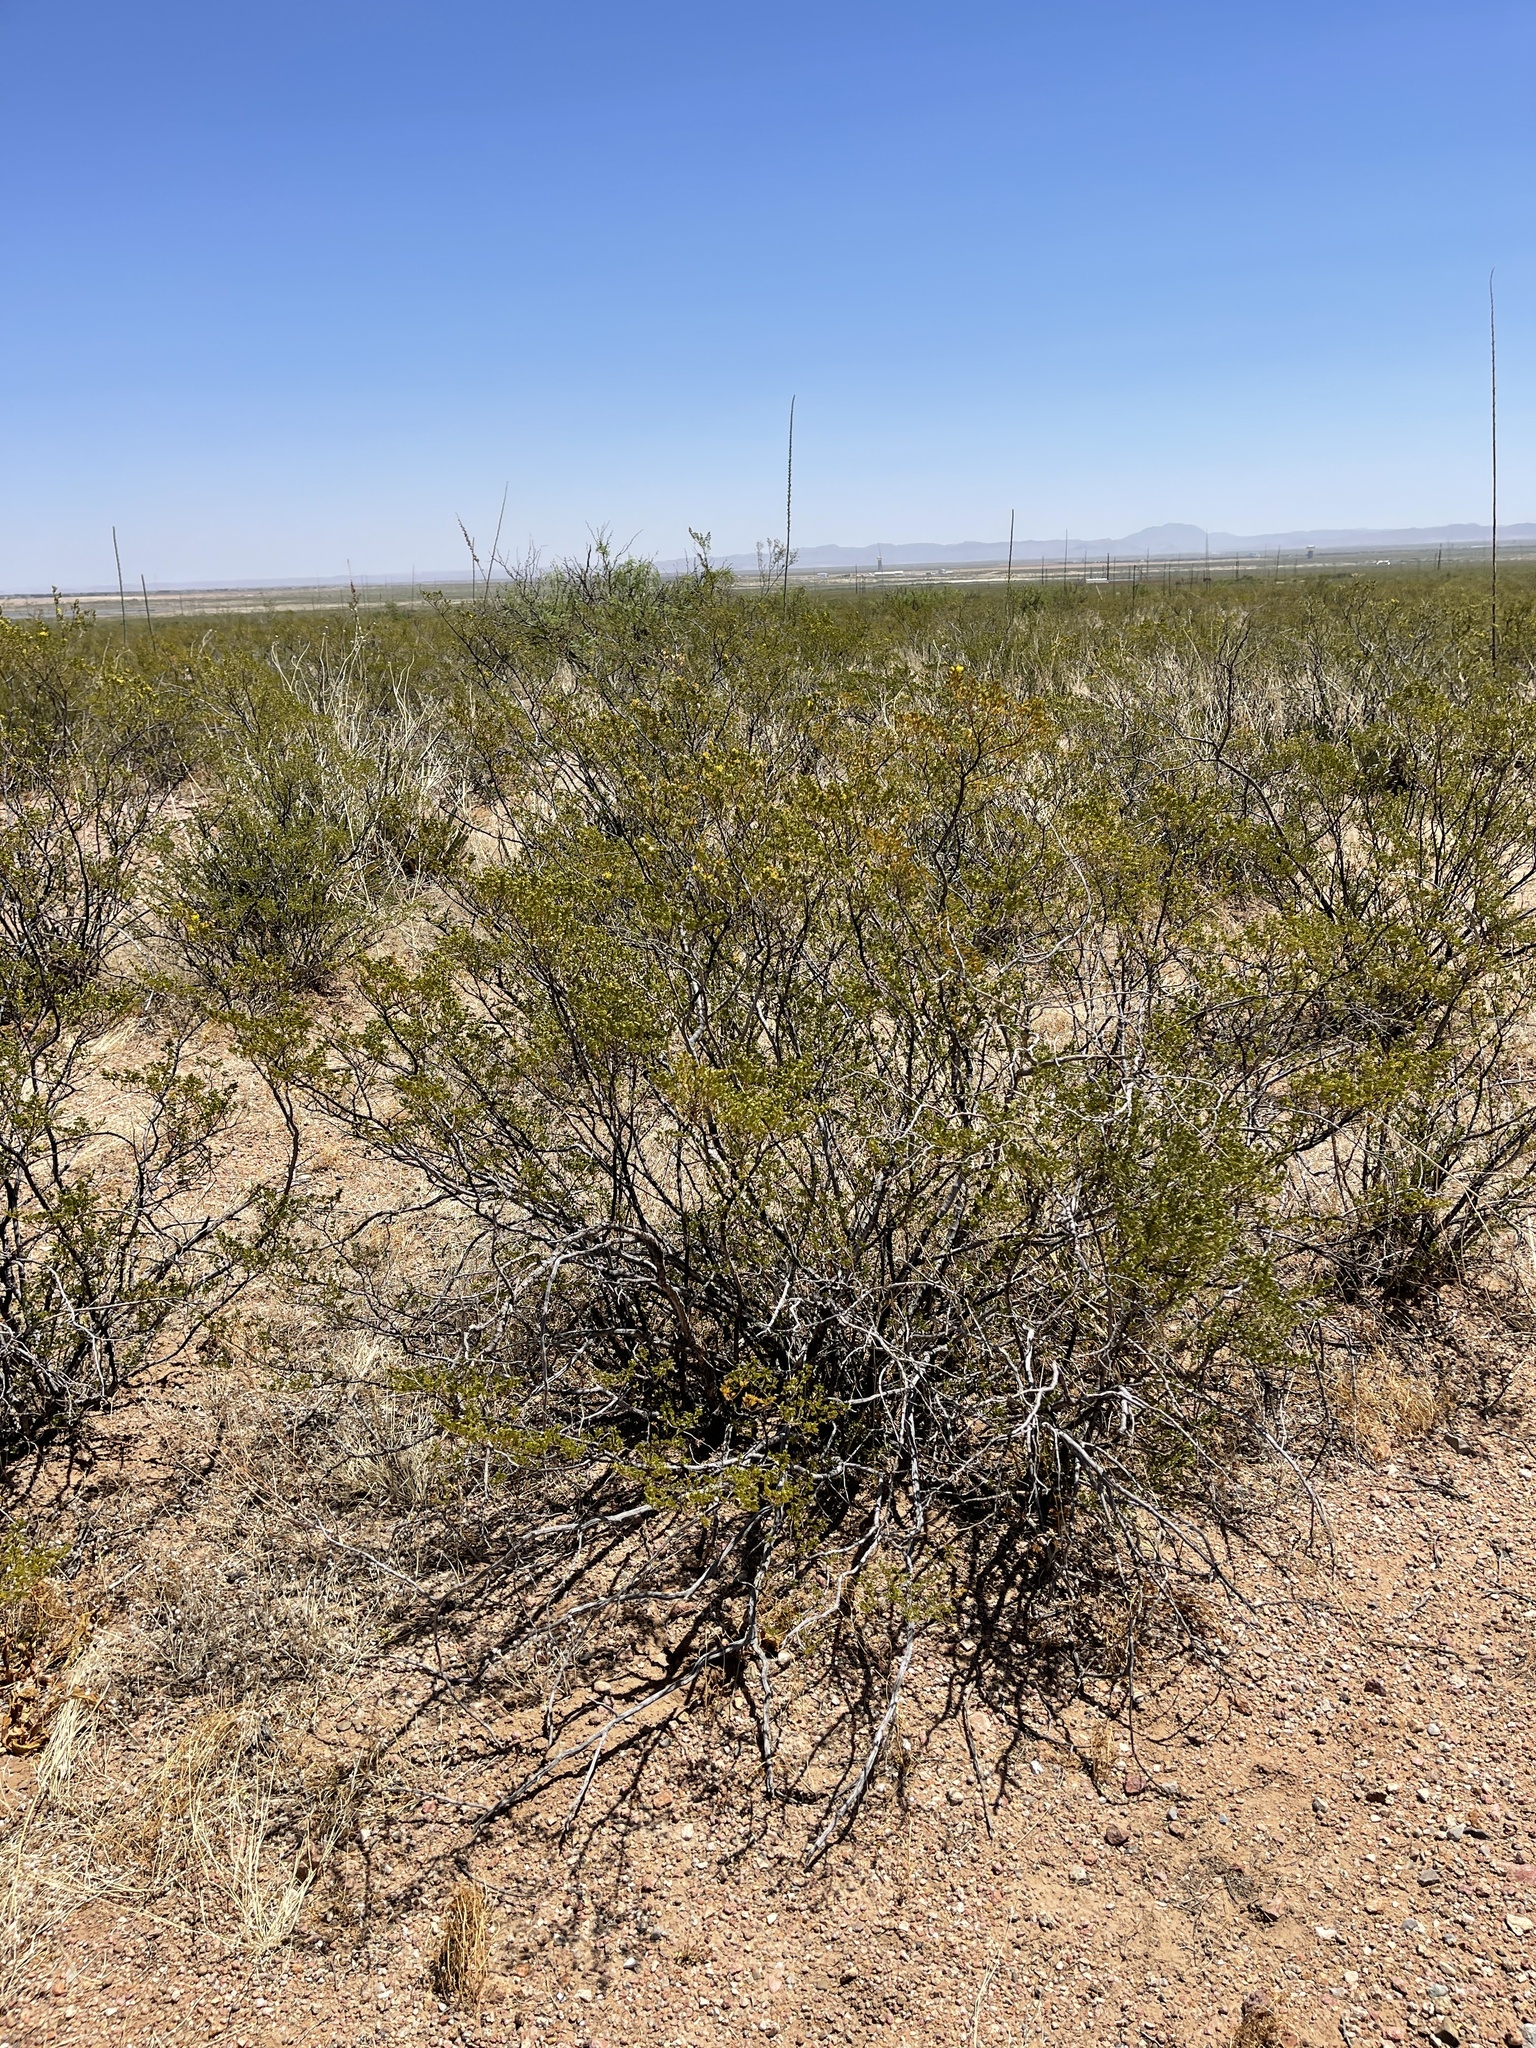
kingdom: Plantae
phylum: Tracheophyta
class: Magnoliopsida
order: Zygophyllales
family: Zygophyllaceae
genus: Larrea
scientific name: Larrea tridentata
